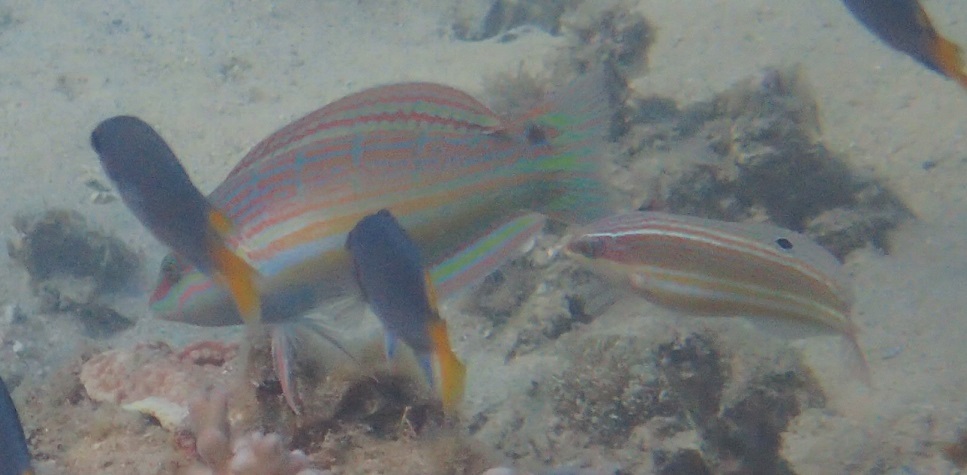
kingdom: Animalia
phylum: Chordata
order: Perciformes
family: Labridae
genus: Coris
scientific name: Coris aurilineata
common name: Goldlined coris
